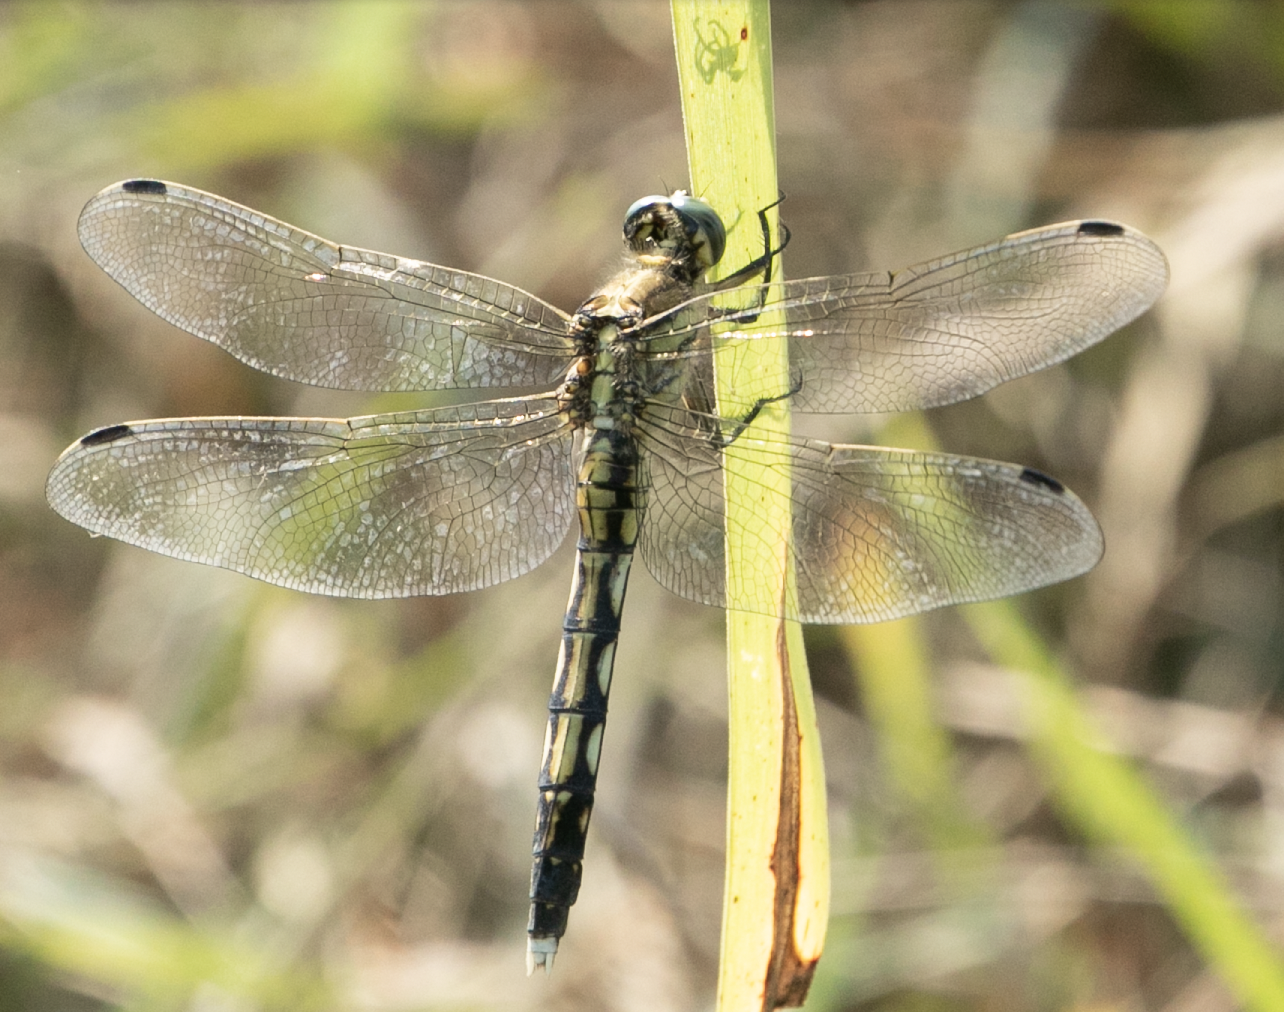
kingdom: Animalia
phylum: Arthropoda
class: Insecta
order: Odonata
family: Libellulidae
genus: Orthetrum
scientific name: Orthetrum albistylum
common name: White-tailed skimmer
